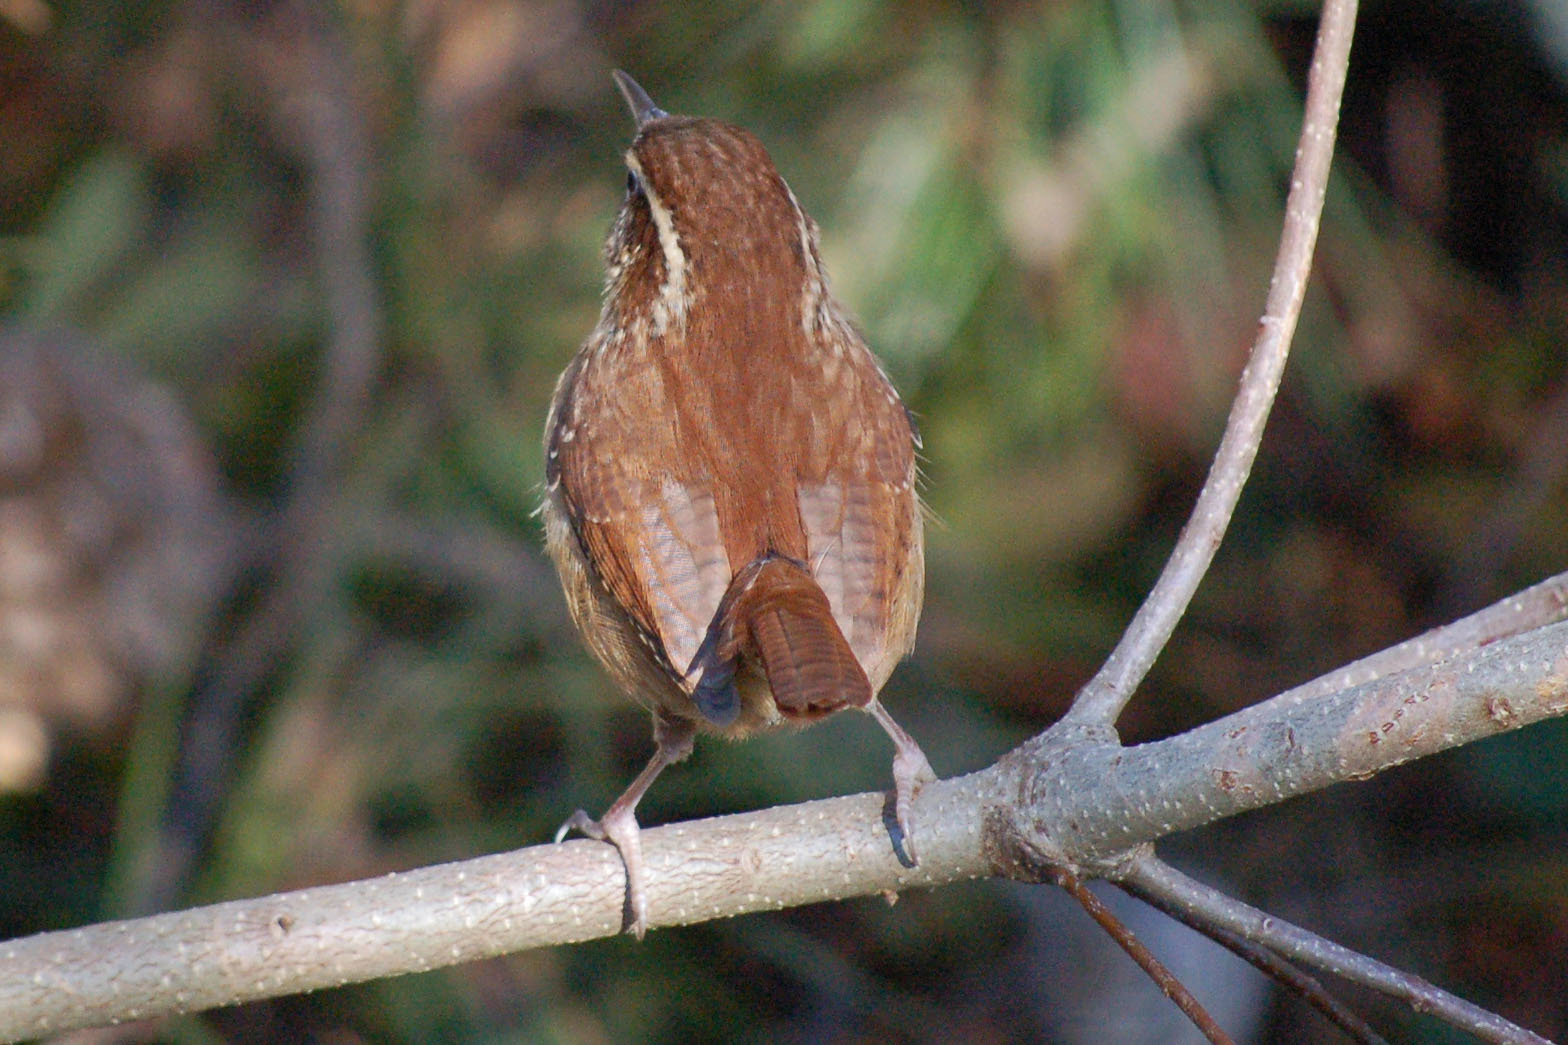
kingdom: Animalia
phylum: Chordata
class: Aves
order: Passeriformes
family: Troglodytidae
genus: Thryothorus
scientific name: Thryothorus ludovicianus
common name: Carolina wren
